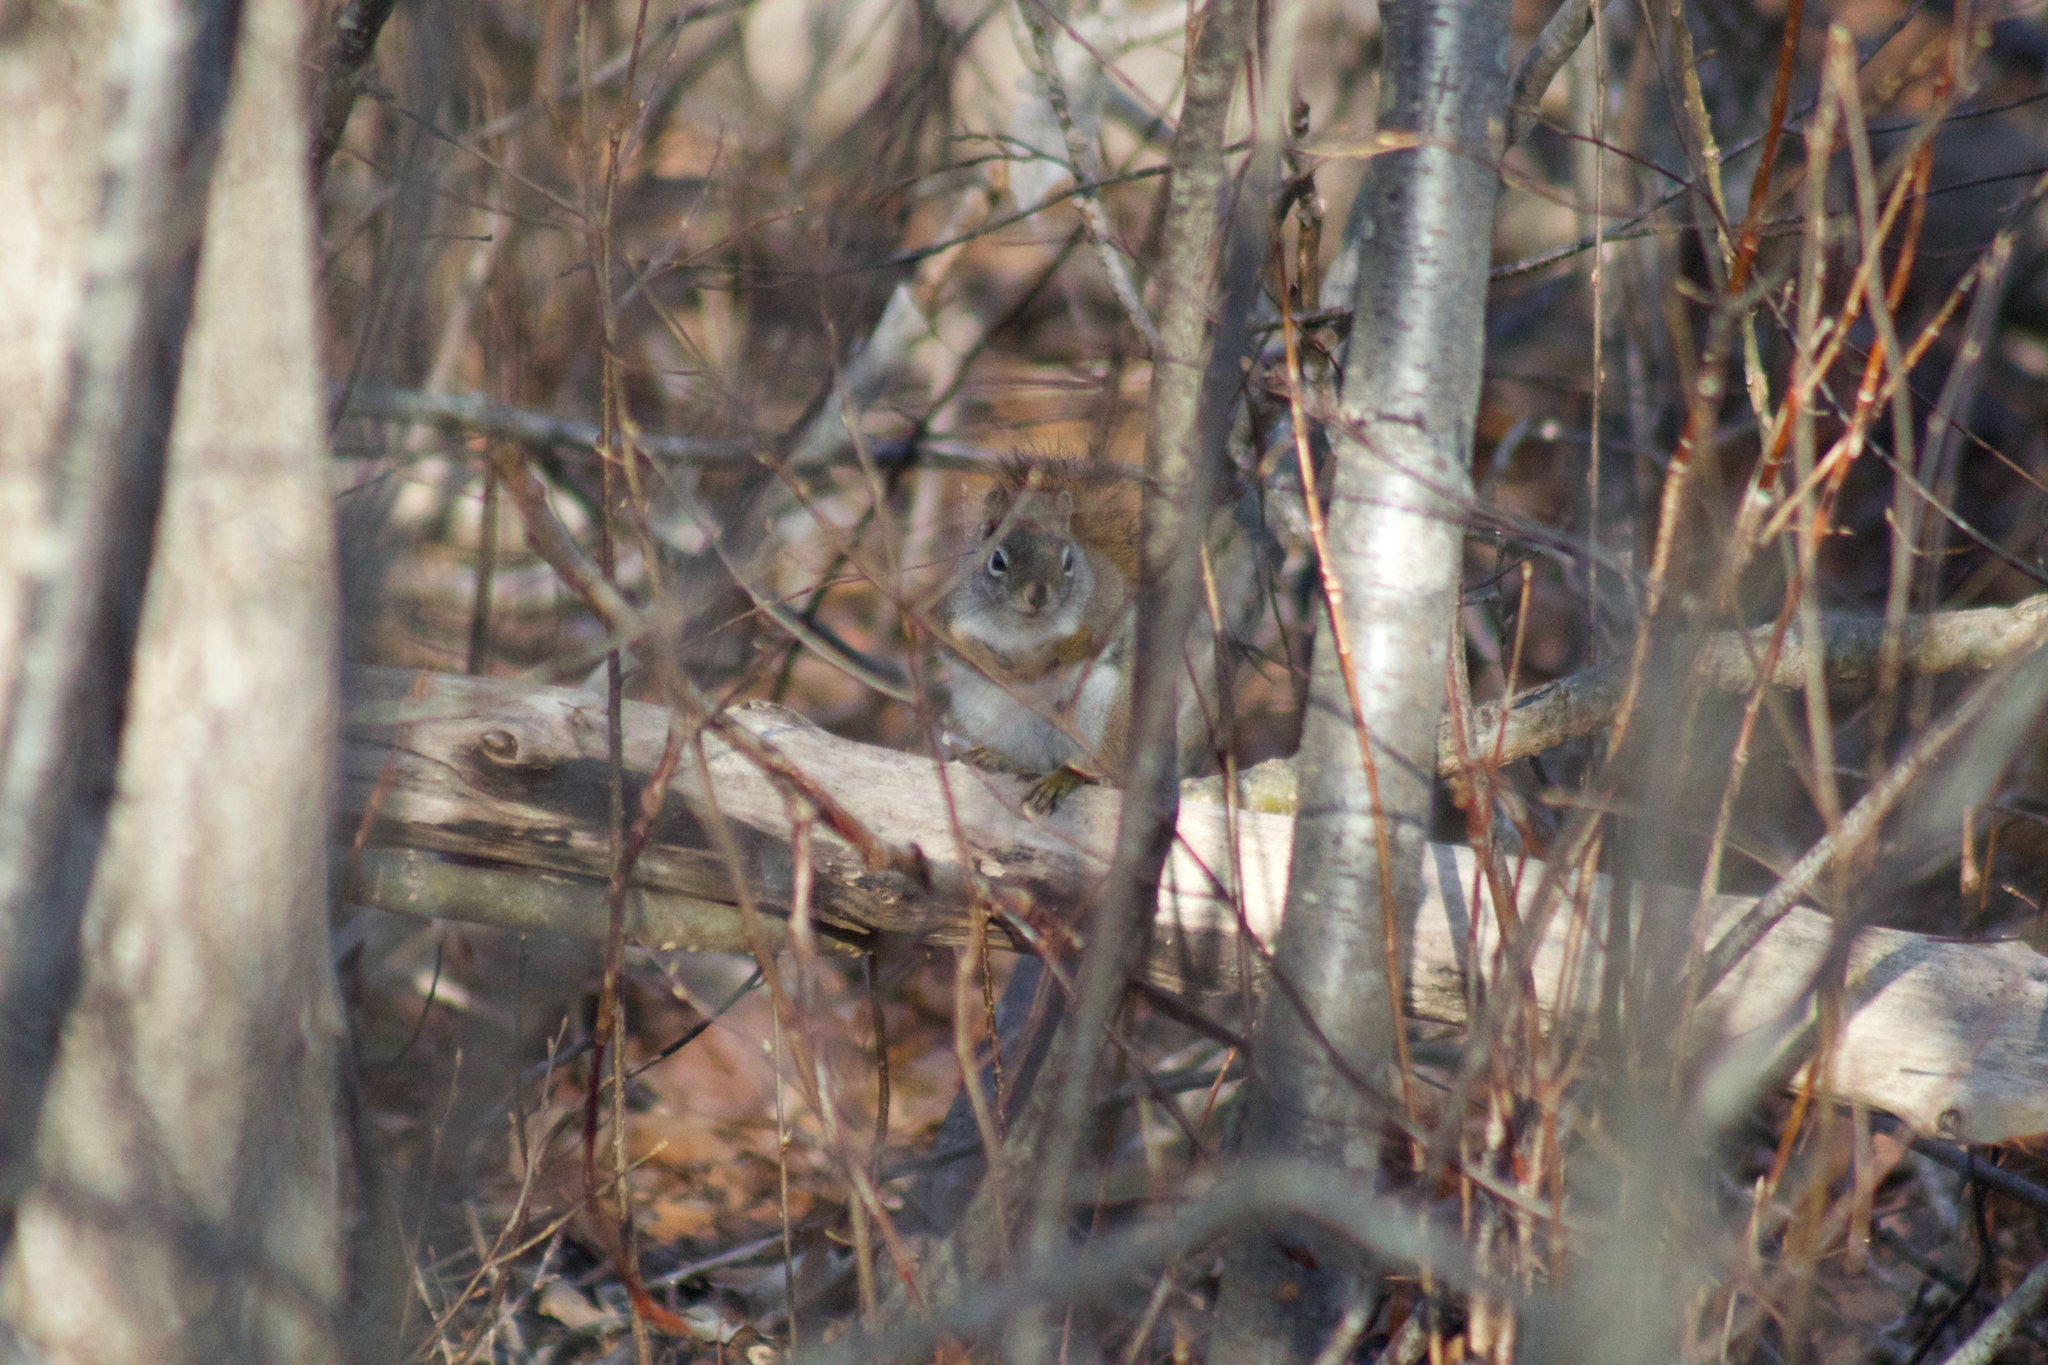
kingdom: Animalia
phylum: Chordata
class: Mammalia
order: Rodentia
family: Sciuridae
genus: Tamiasciurus
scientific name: Tamiasciurus hudsonicus
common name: Red squirrel
